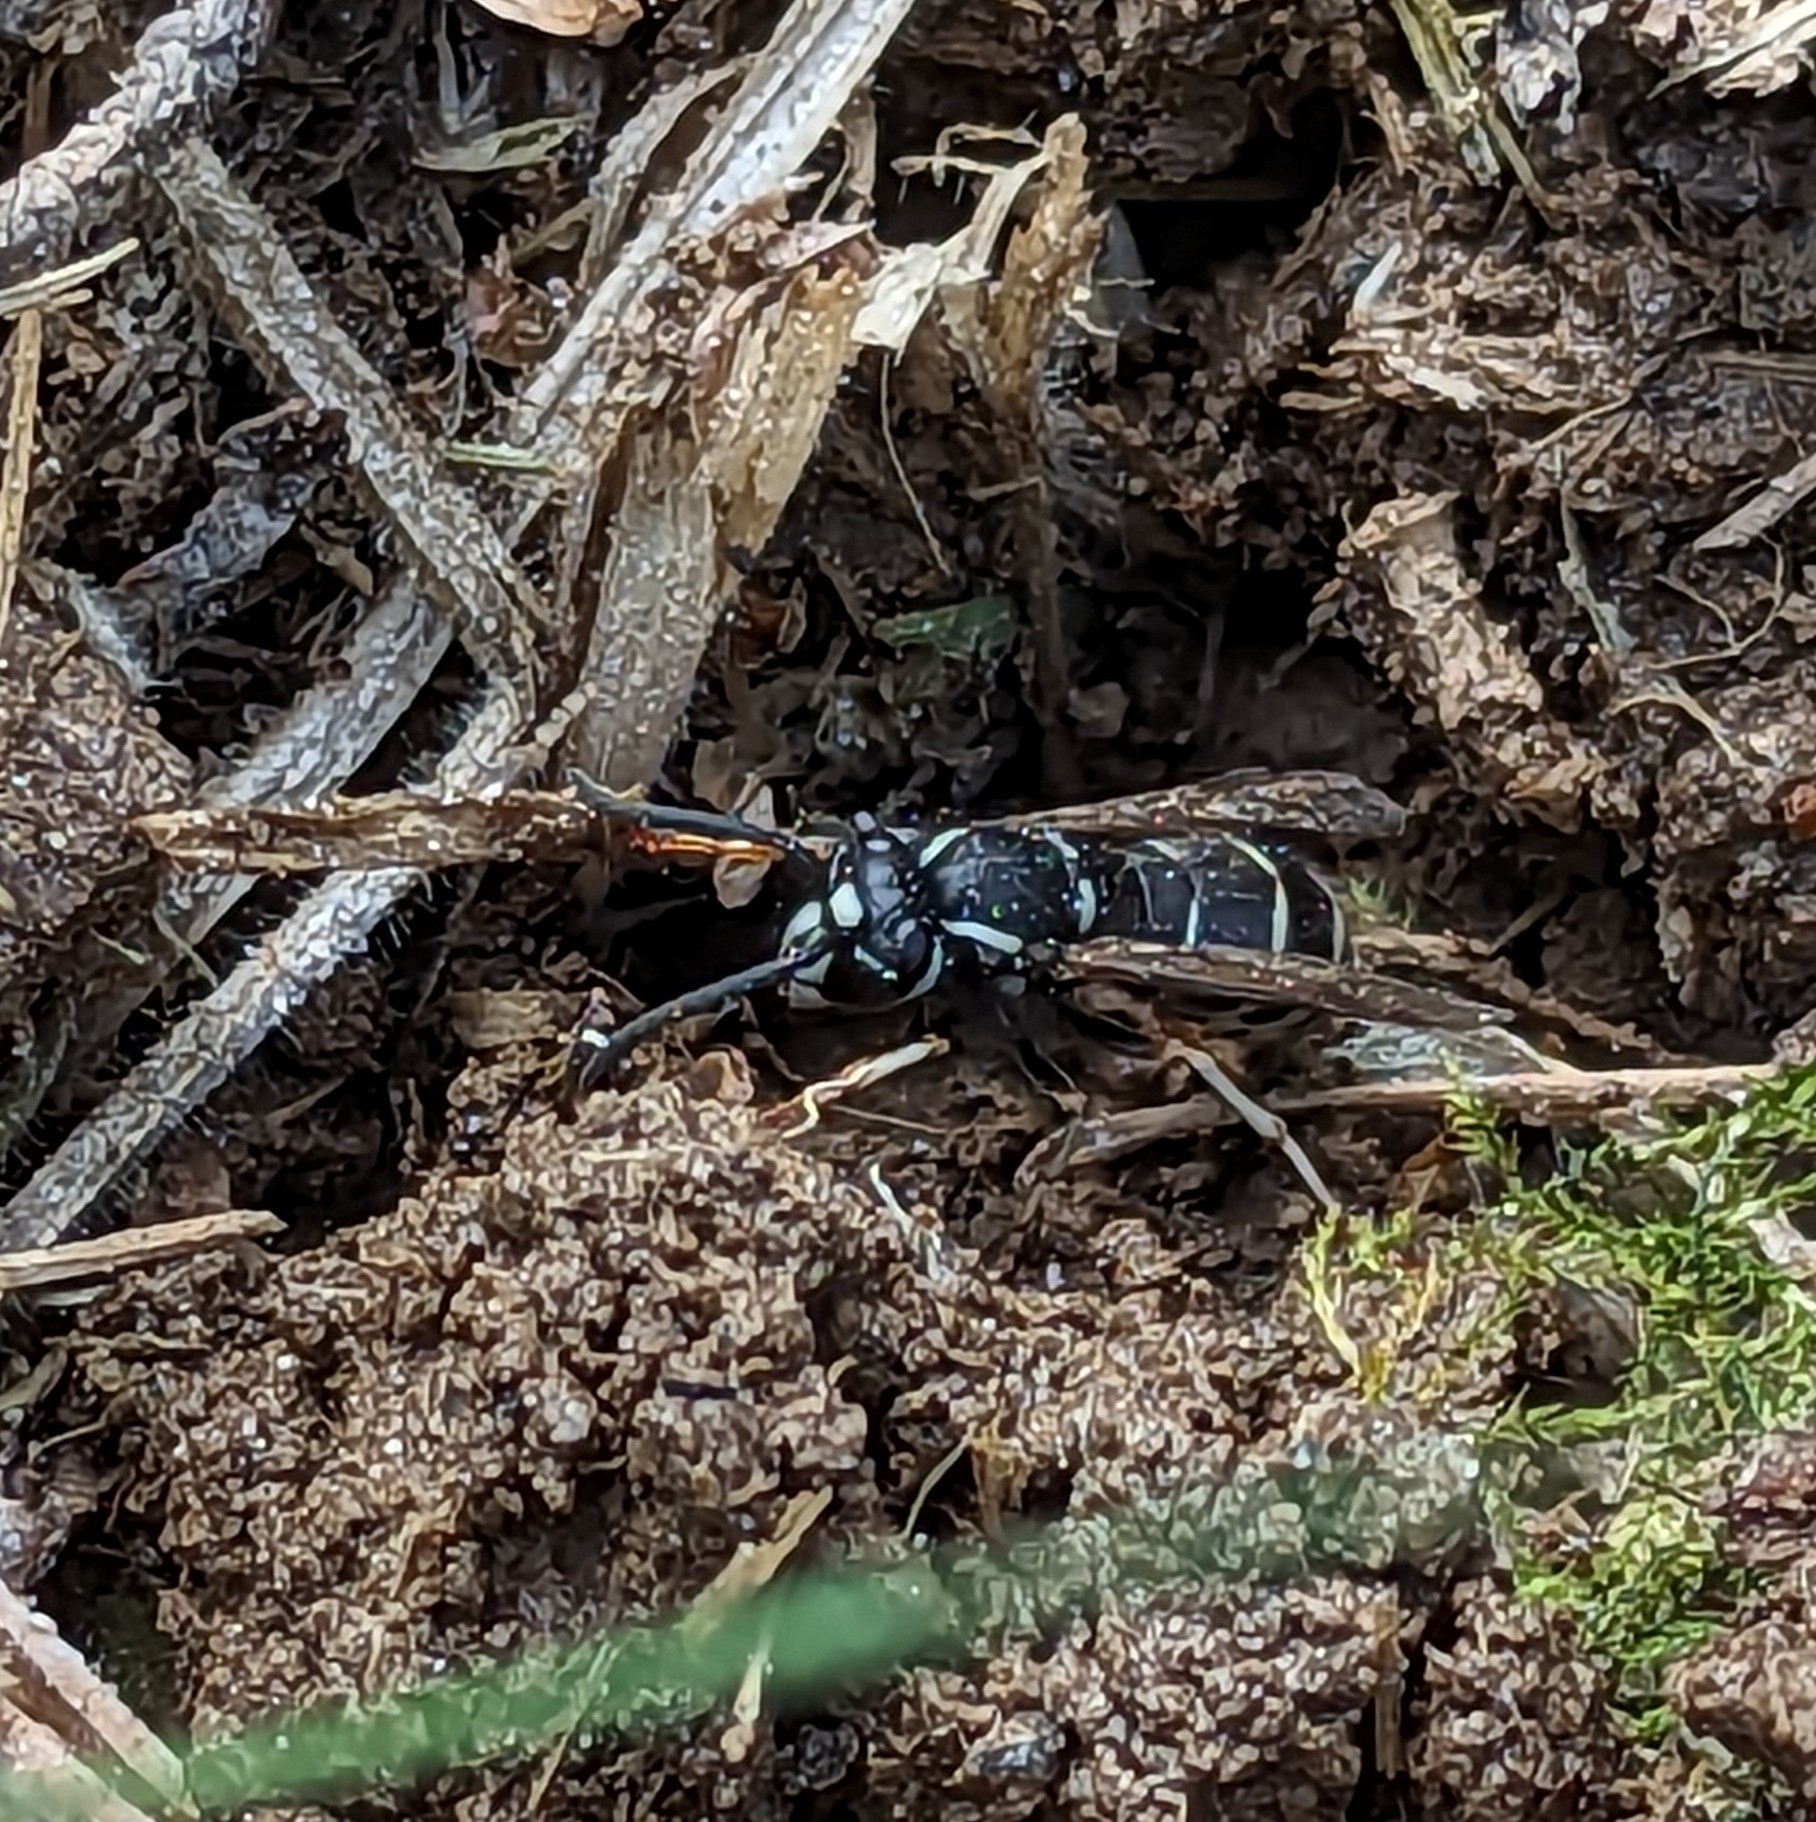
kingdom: Animalia
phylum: Arthropoda
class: Insecta
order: Hymenoptera
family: Vespidae
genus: Vespula
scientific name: Vespula consobrina
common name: Blackjacket
